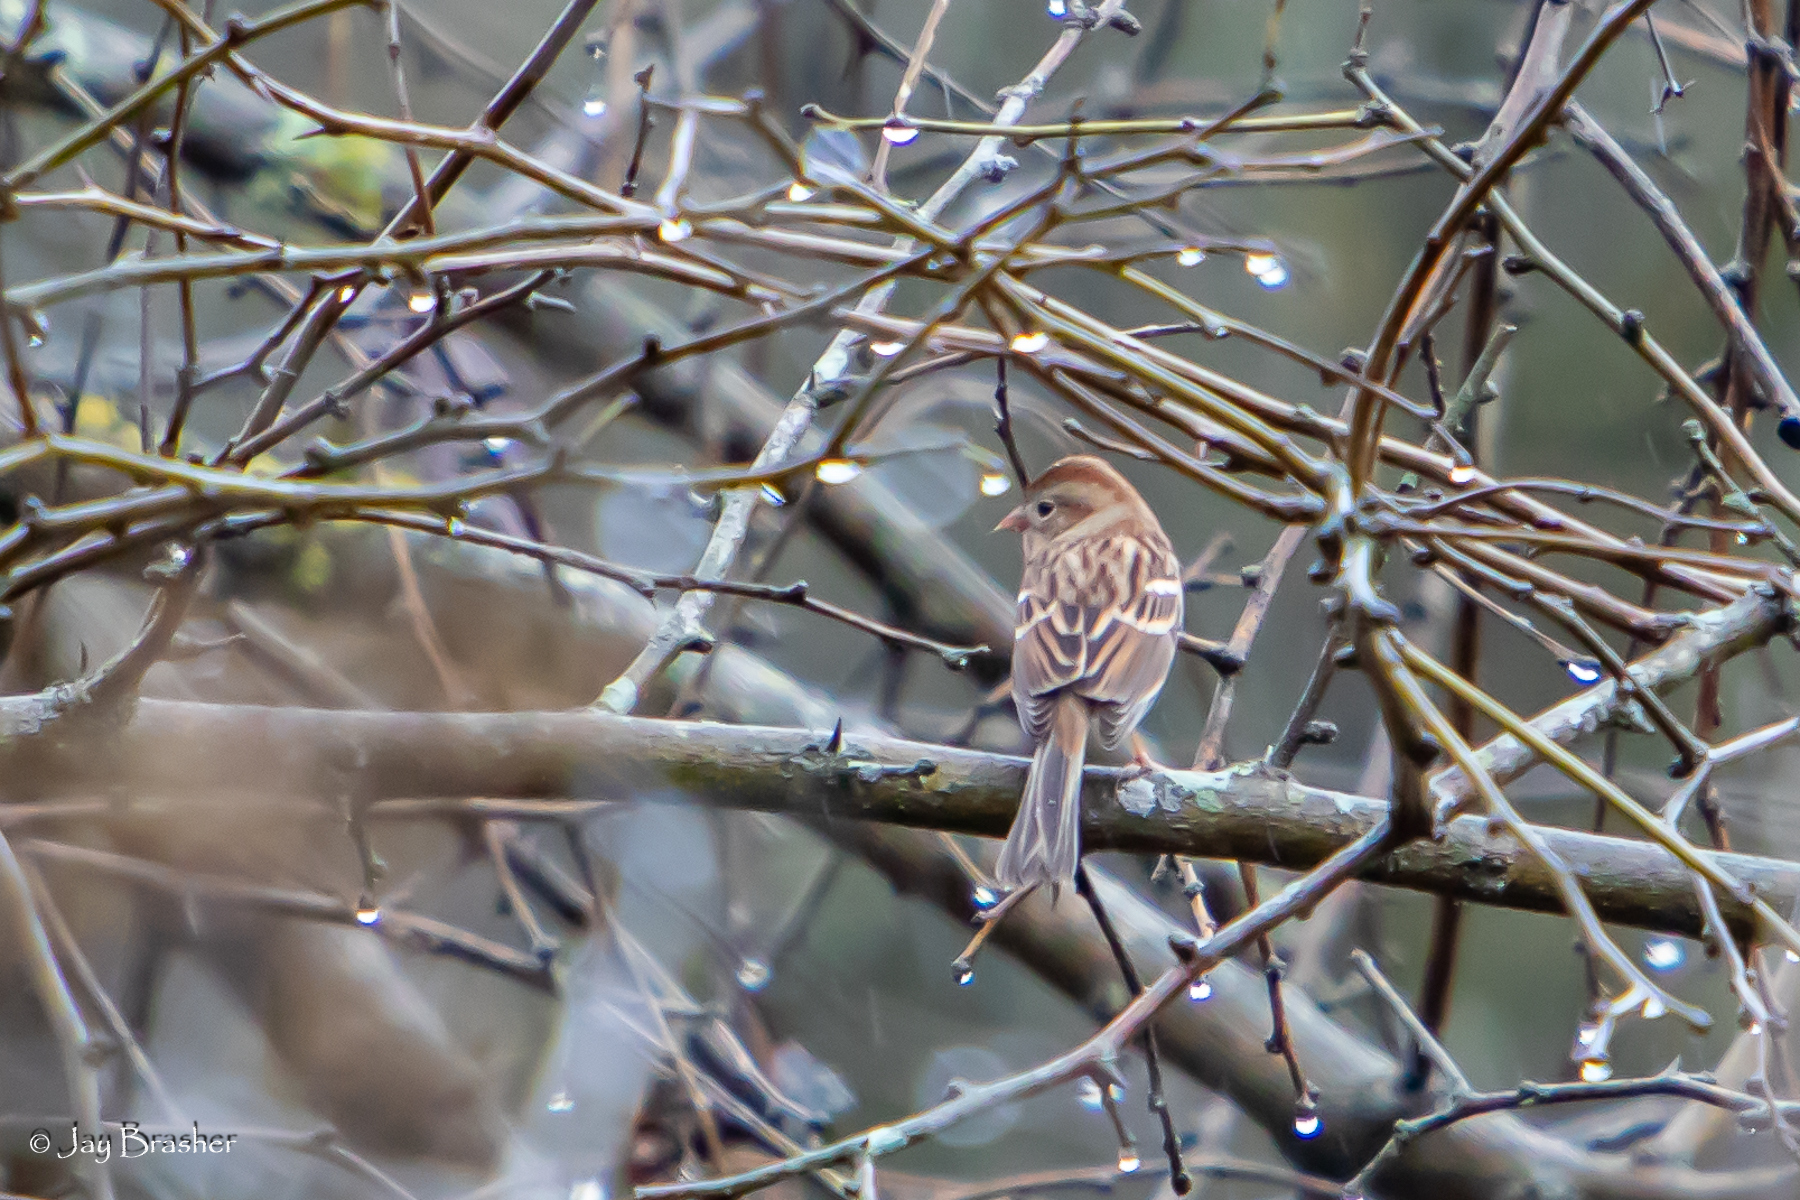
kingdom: Animalia
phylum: Chordata
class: Aves
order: Passeriformes
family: Passerellidae
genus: Spizella
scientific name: Spizella pusilla
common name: Field sparrow
